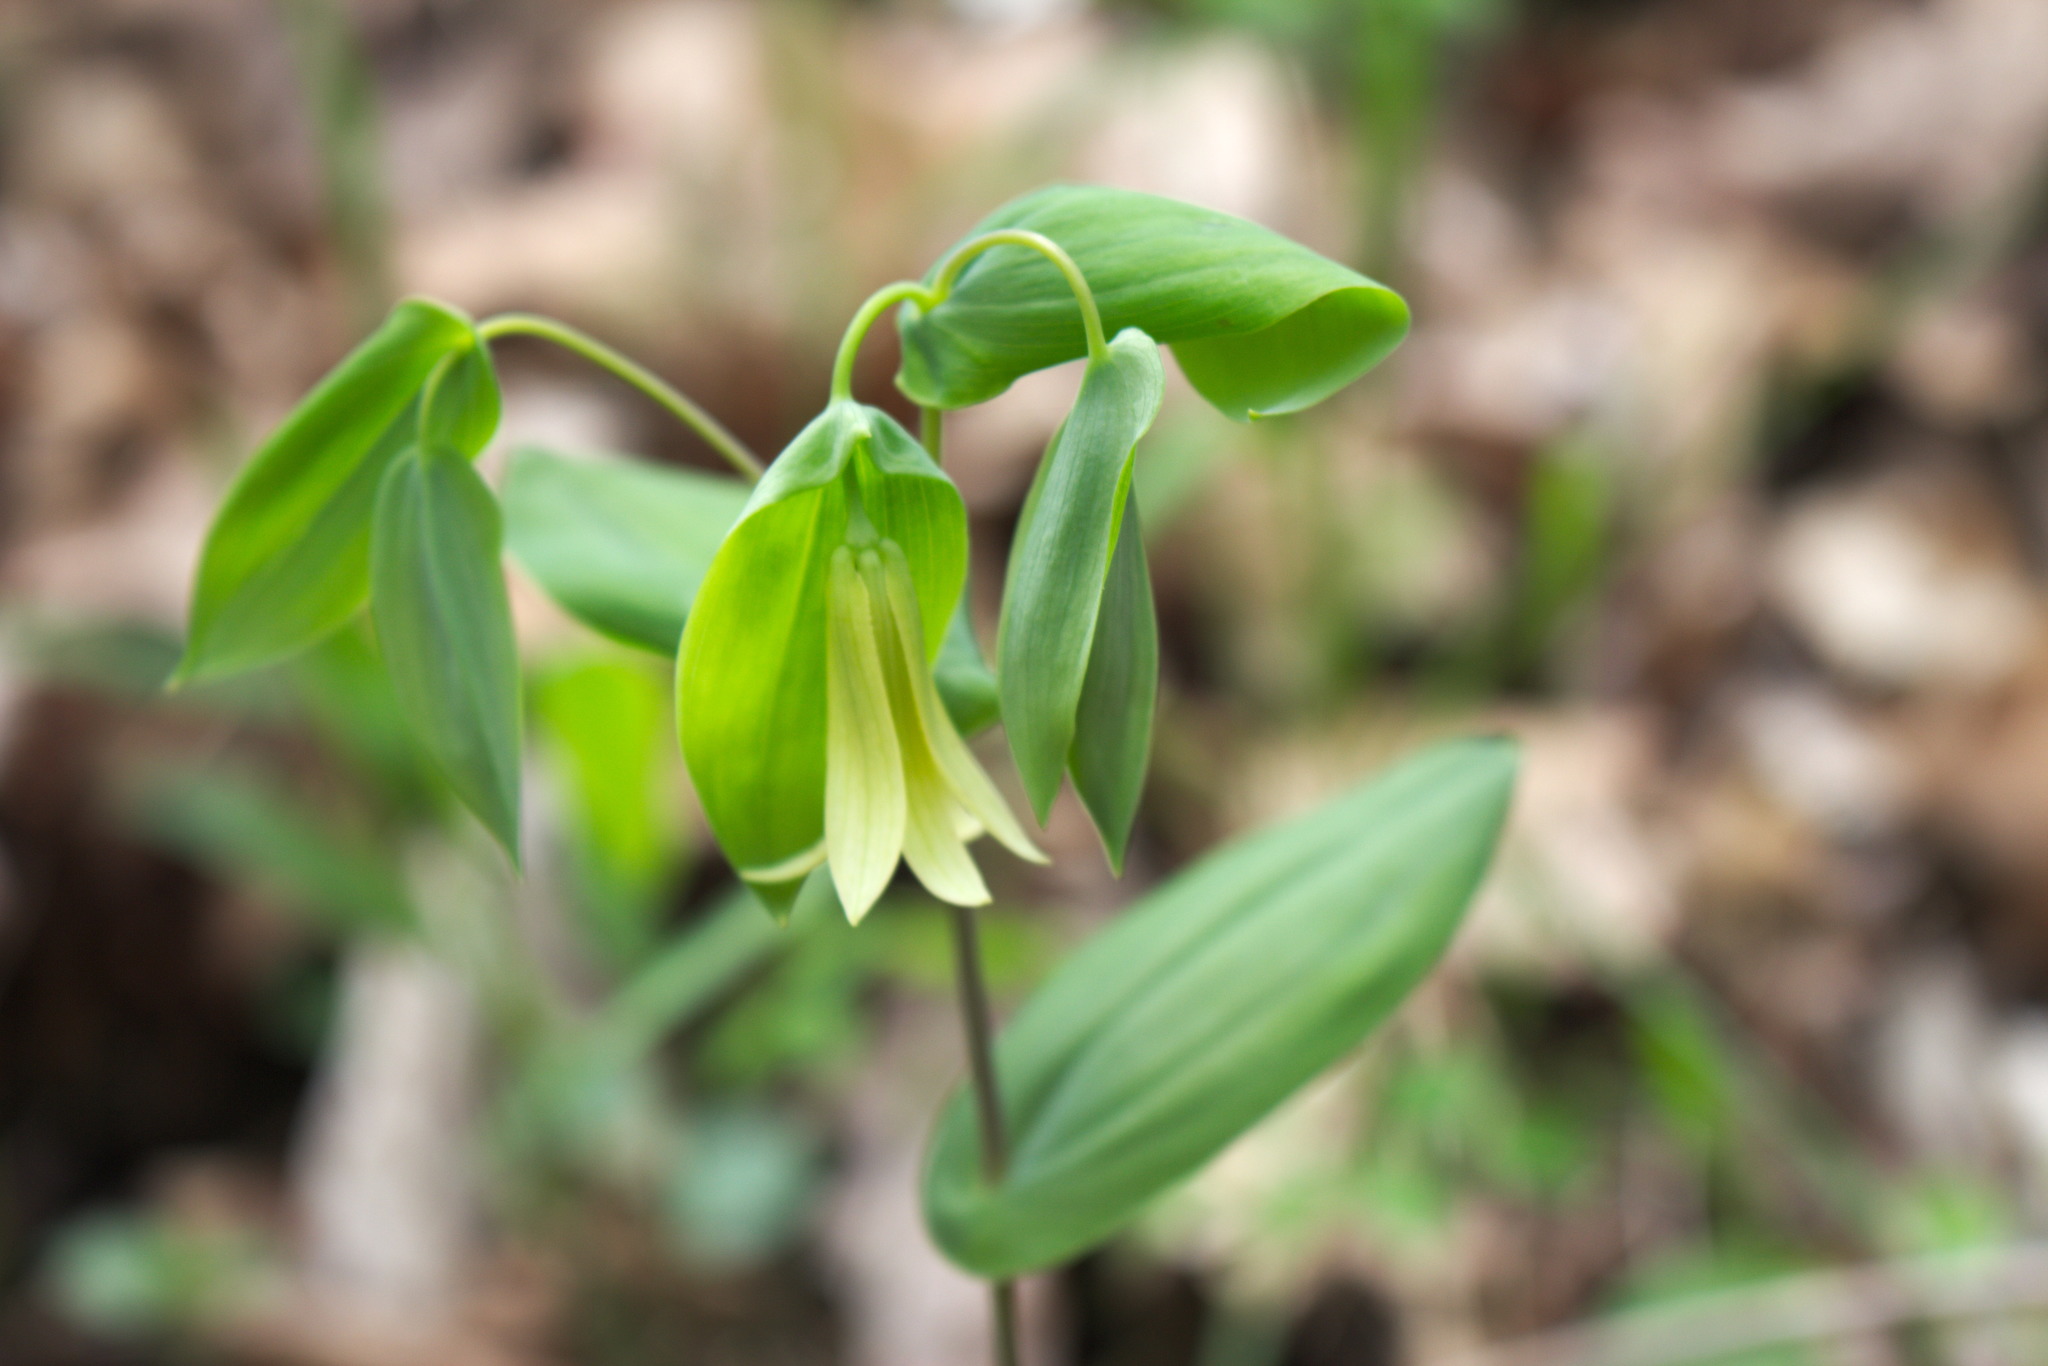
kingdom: Plantae
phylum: Tracheophyta
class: Liliopsida
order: Liliales
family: Colchicaceae
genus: Uvularia
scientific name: Uvularia perfoliata
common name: Perfoliate bellwort
